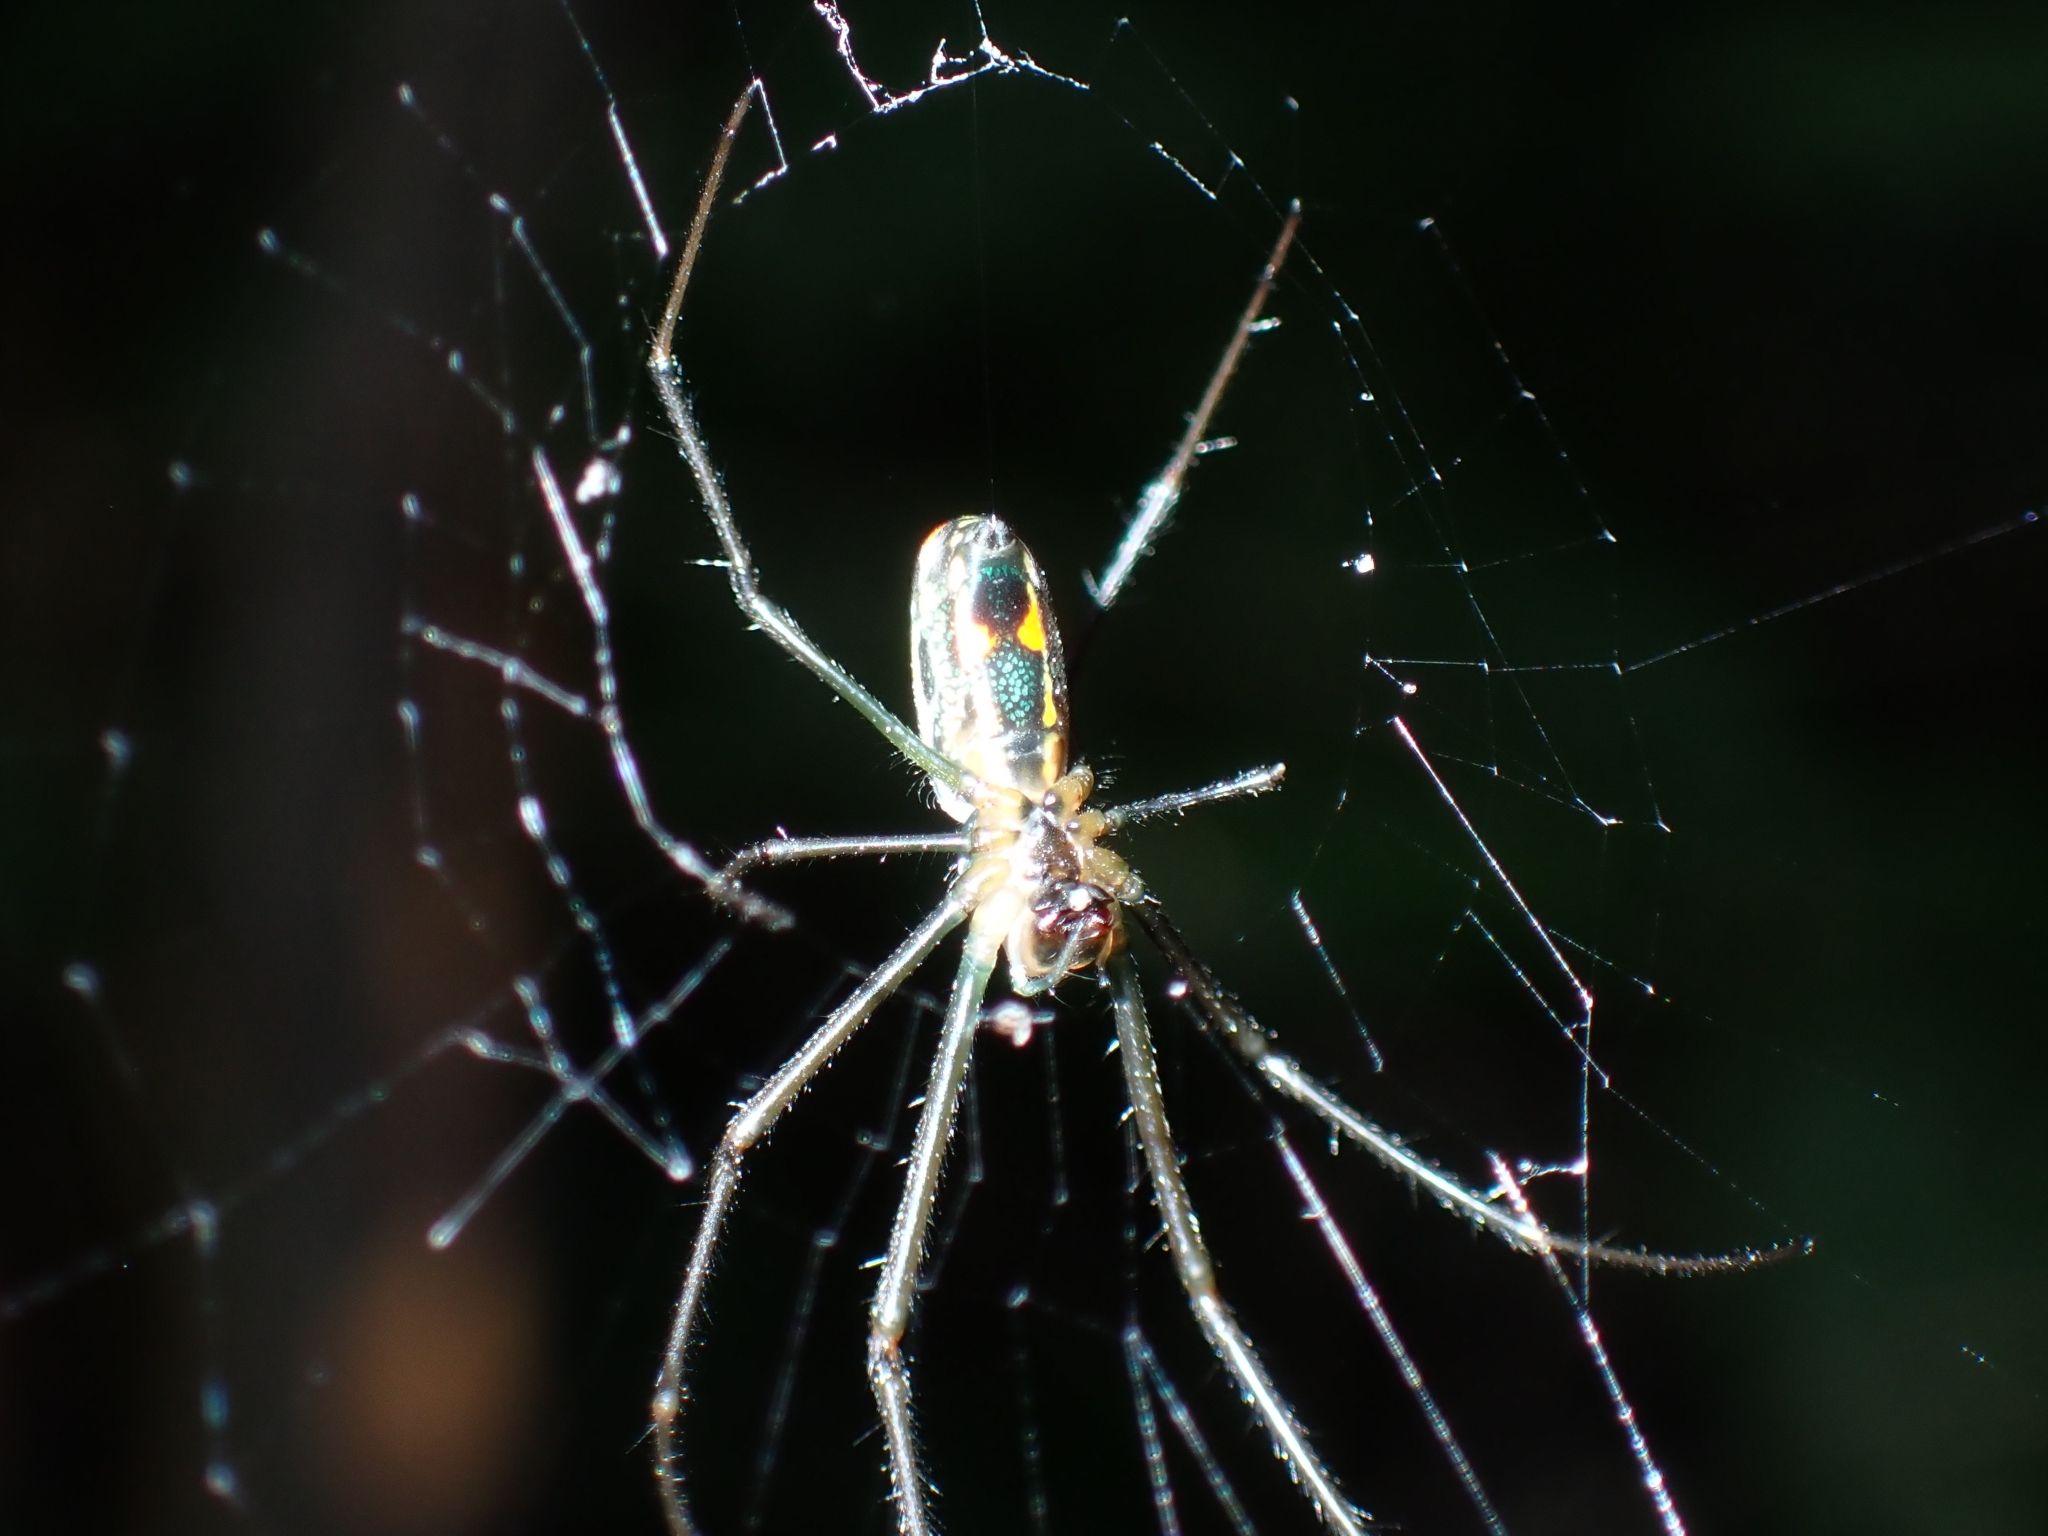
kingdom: Animalia
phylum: Arthropoda
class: Arachnida
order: Araneae
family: Tetragnathidae
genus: Leucauge
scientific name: Leucauge hebridisiana
